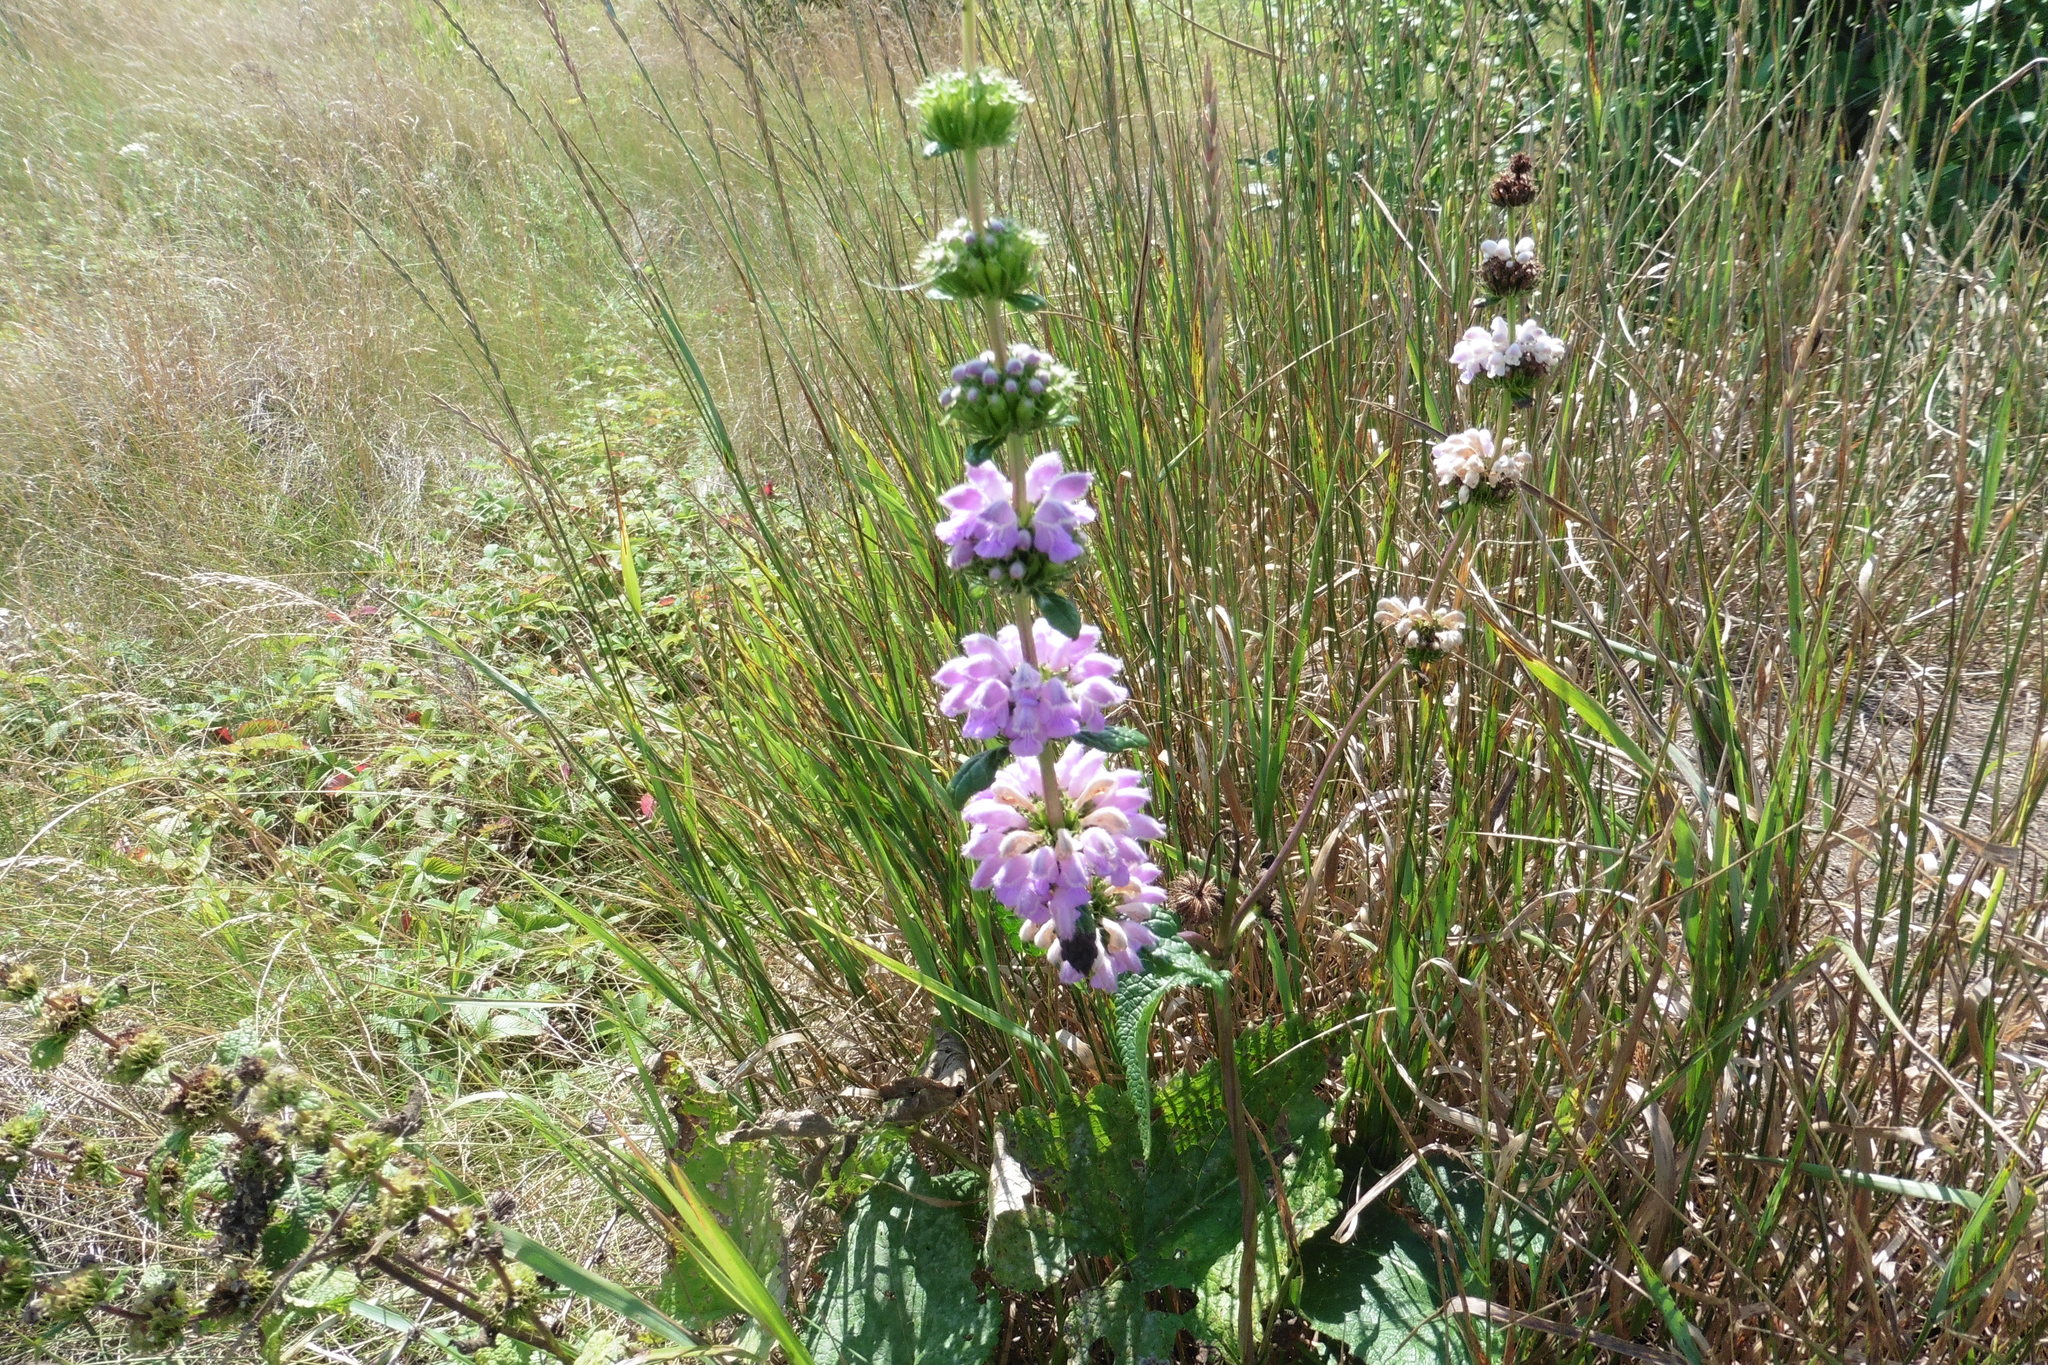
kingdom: Plantae
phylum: Tracheophyta
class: Magnoliopsida
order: Lamiales
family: Lamiaceae
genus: Phlomoides
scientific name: Phlomoides tuberosa
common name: Tuberous jerusalem sage
